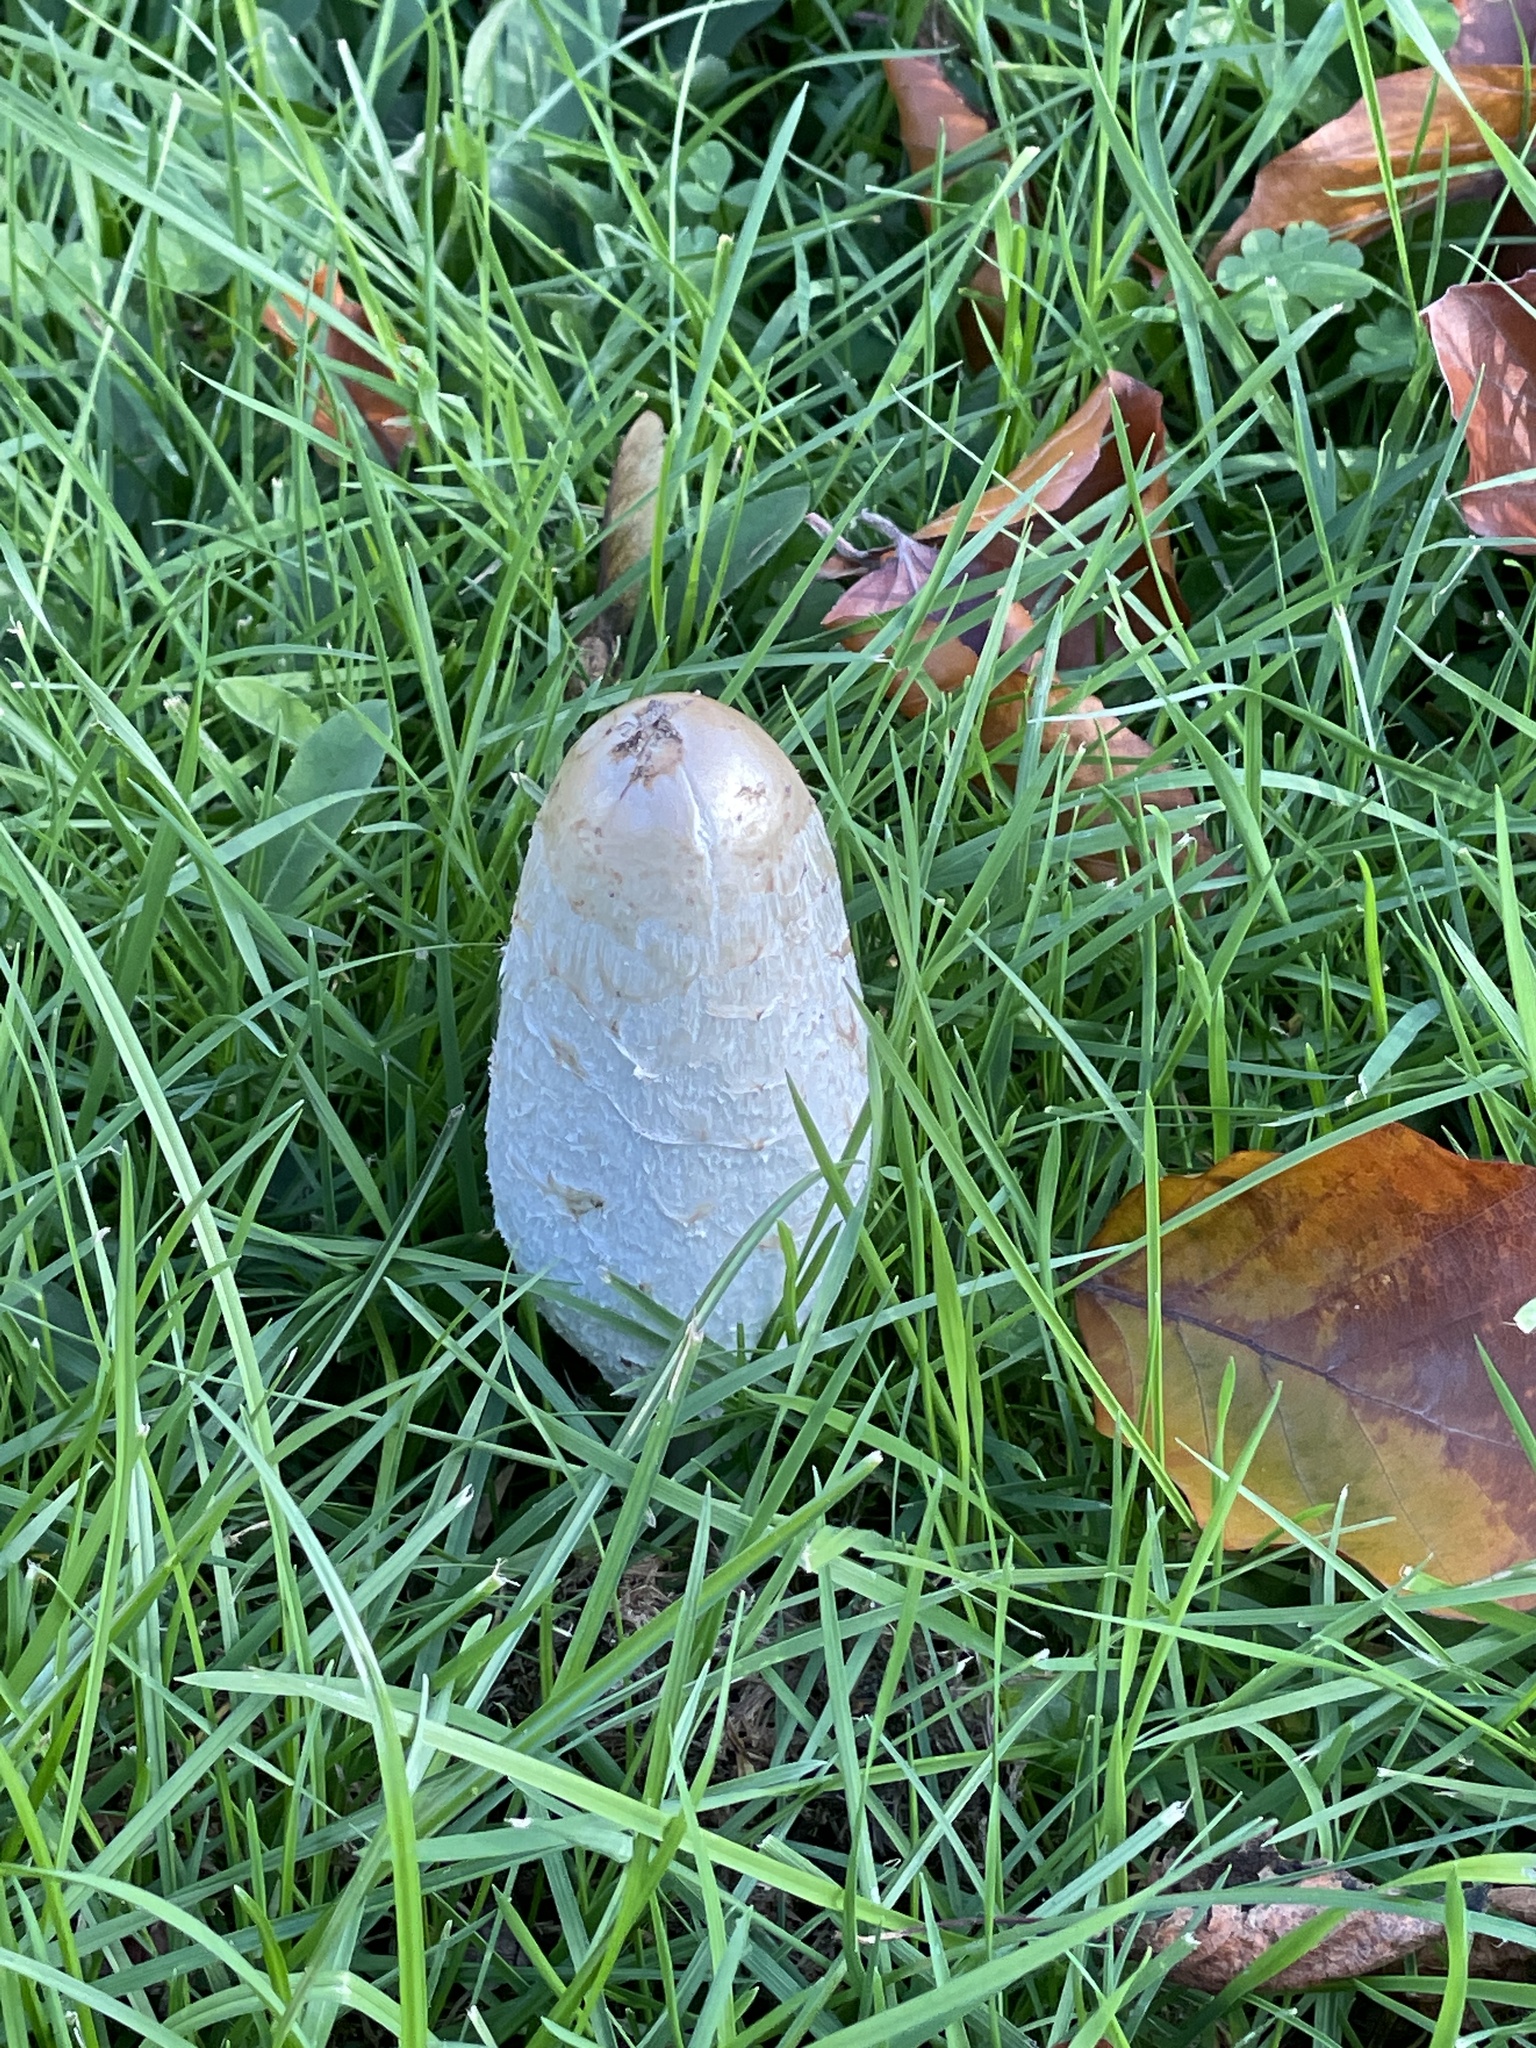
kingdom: Fungi
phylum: Basidiomycota
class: Agaricomycetes
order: Agaricales
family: Agaricaceae
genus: Coprinus
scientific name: Coprinus comatus
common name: Lawyer's wig
